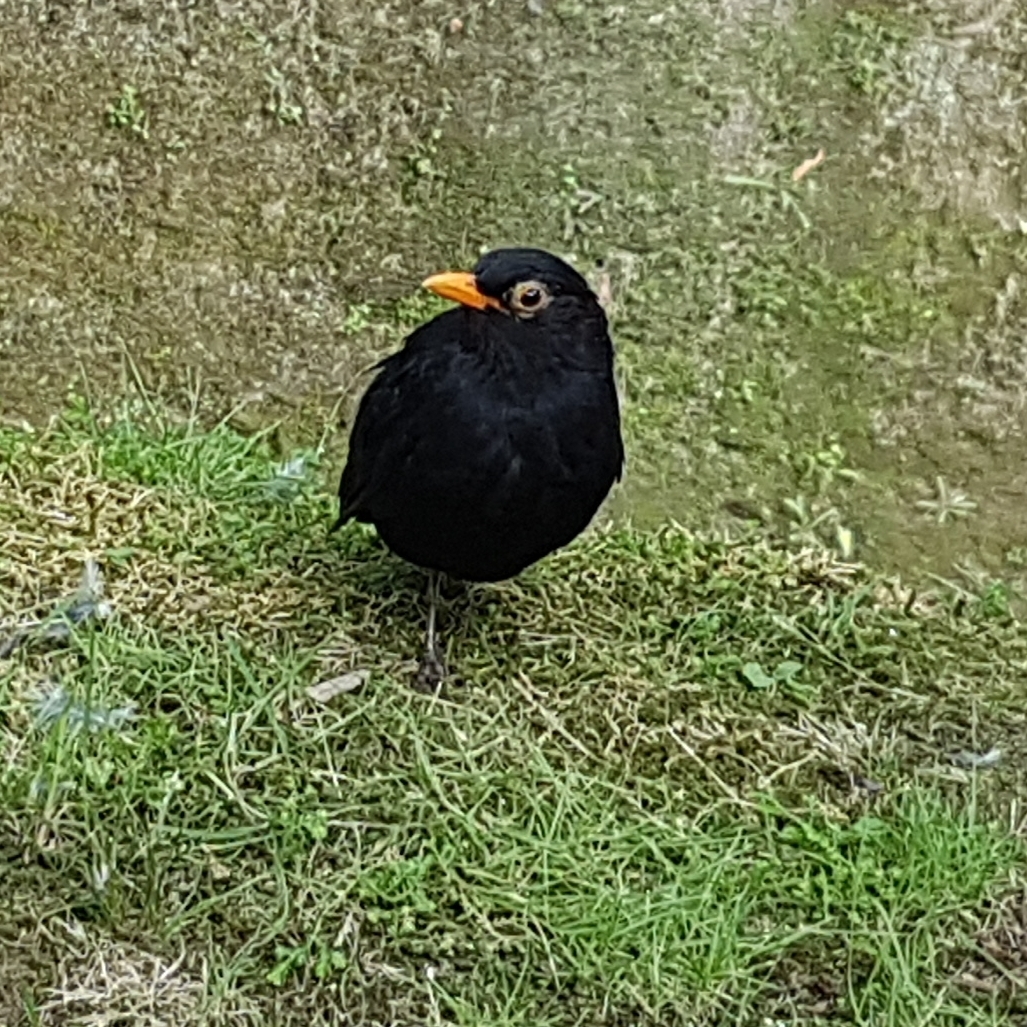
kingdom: Animalia
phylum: Chordata
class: Aves
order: Passeriformes
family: Turdidae
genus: Turdus
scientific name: Turdus merula
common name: Common blackbird
